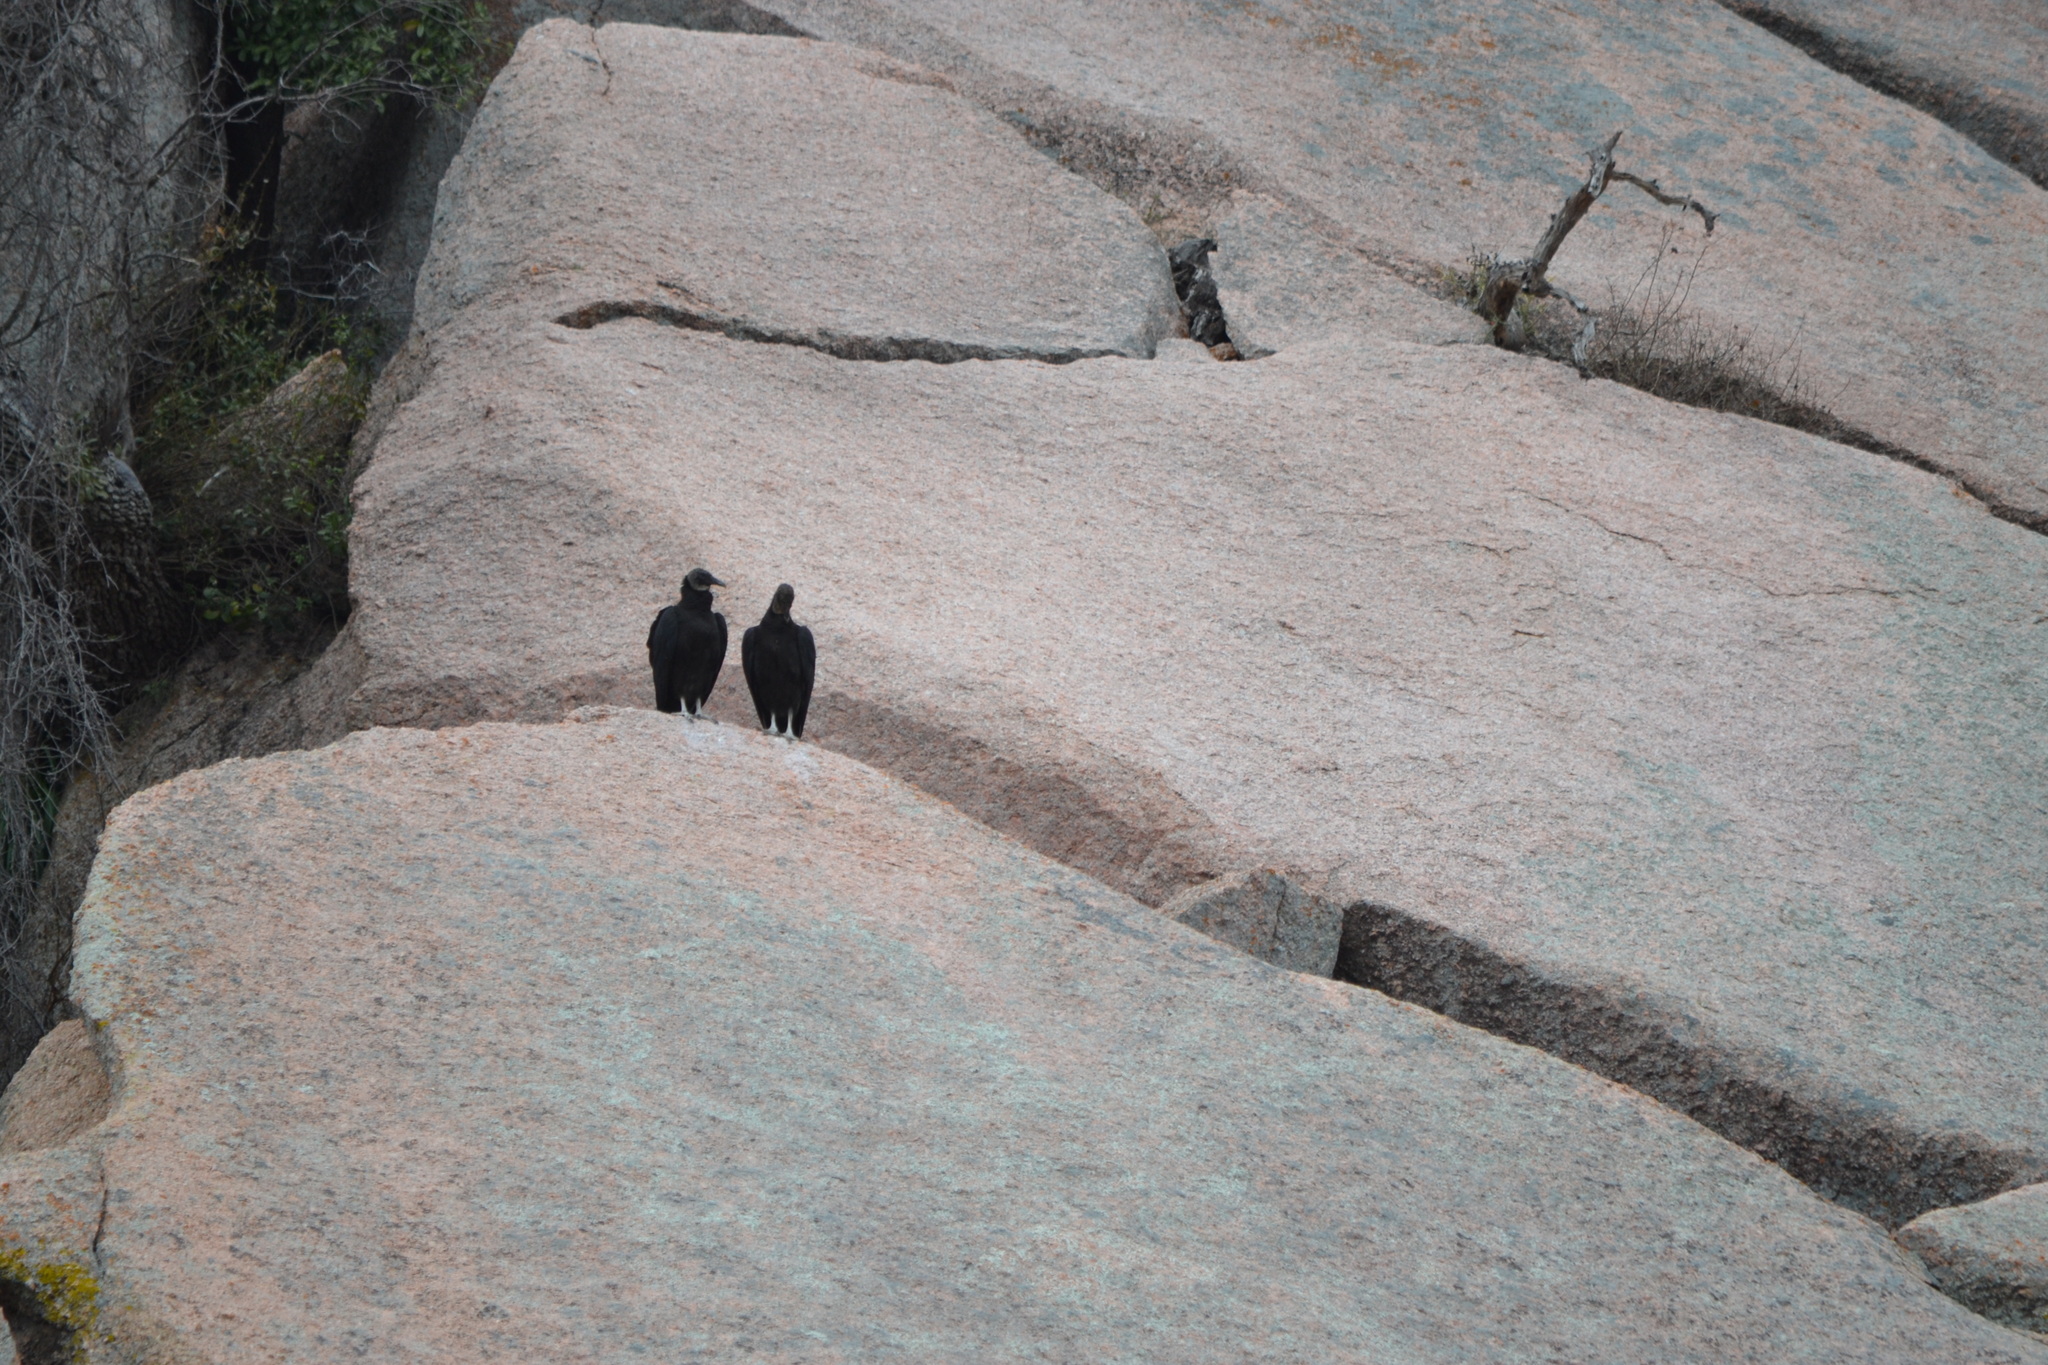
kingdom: Animalia
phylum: Chordata
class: Aves
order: Accipitriformes
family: Cathartidae
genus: Coragyps
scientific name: Coragyps atratus
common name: Black vulture
